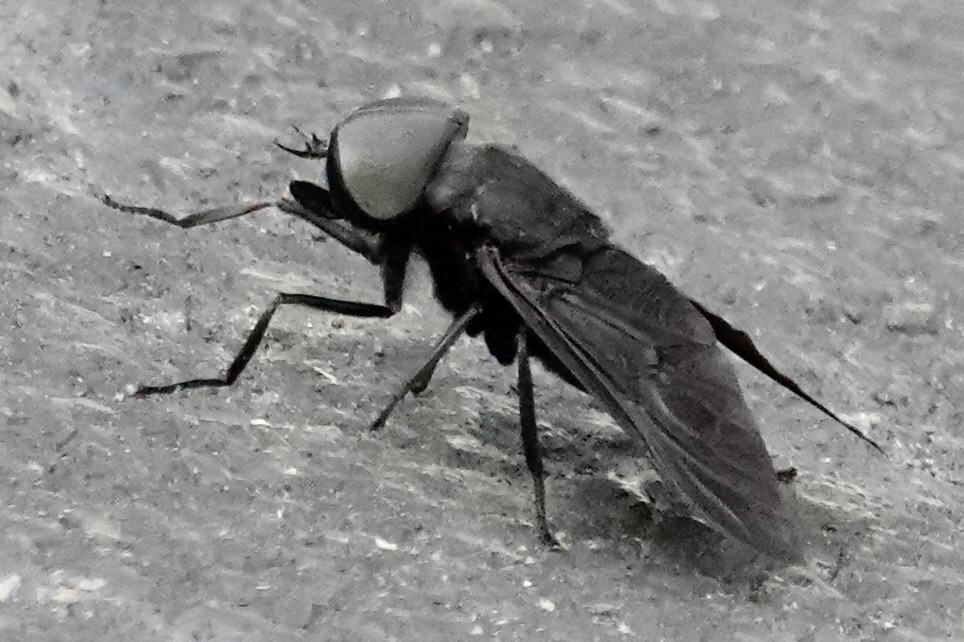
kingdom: Animalia
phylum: Arthropoda
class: Insecta
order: Diptera
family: Tabanidae
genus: Tabanus
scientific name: Tabanus atratus
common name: Black horse fly
